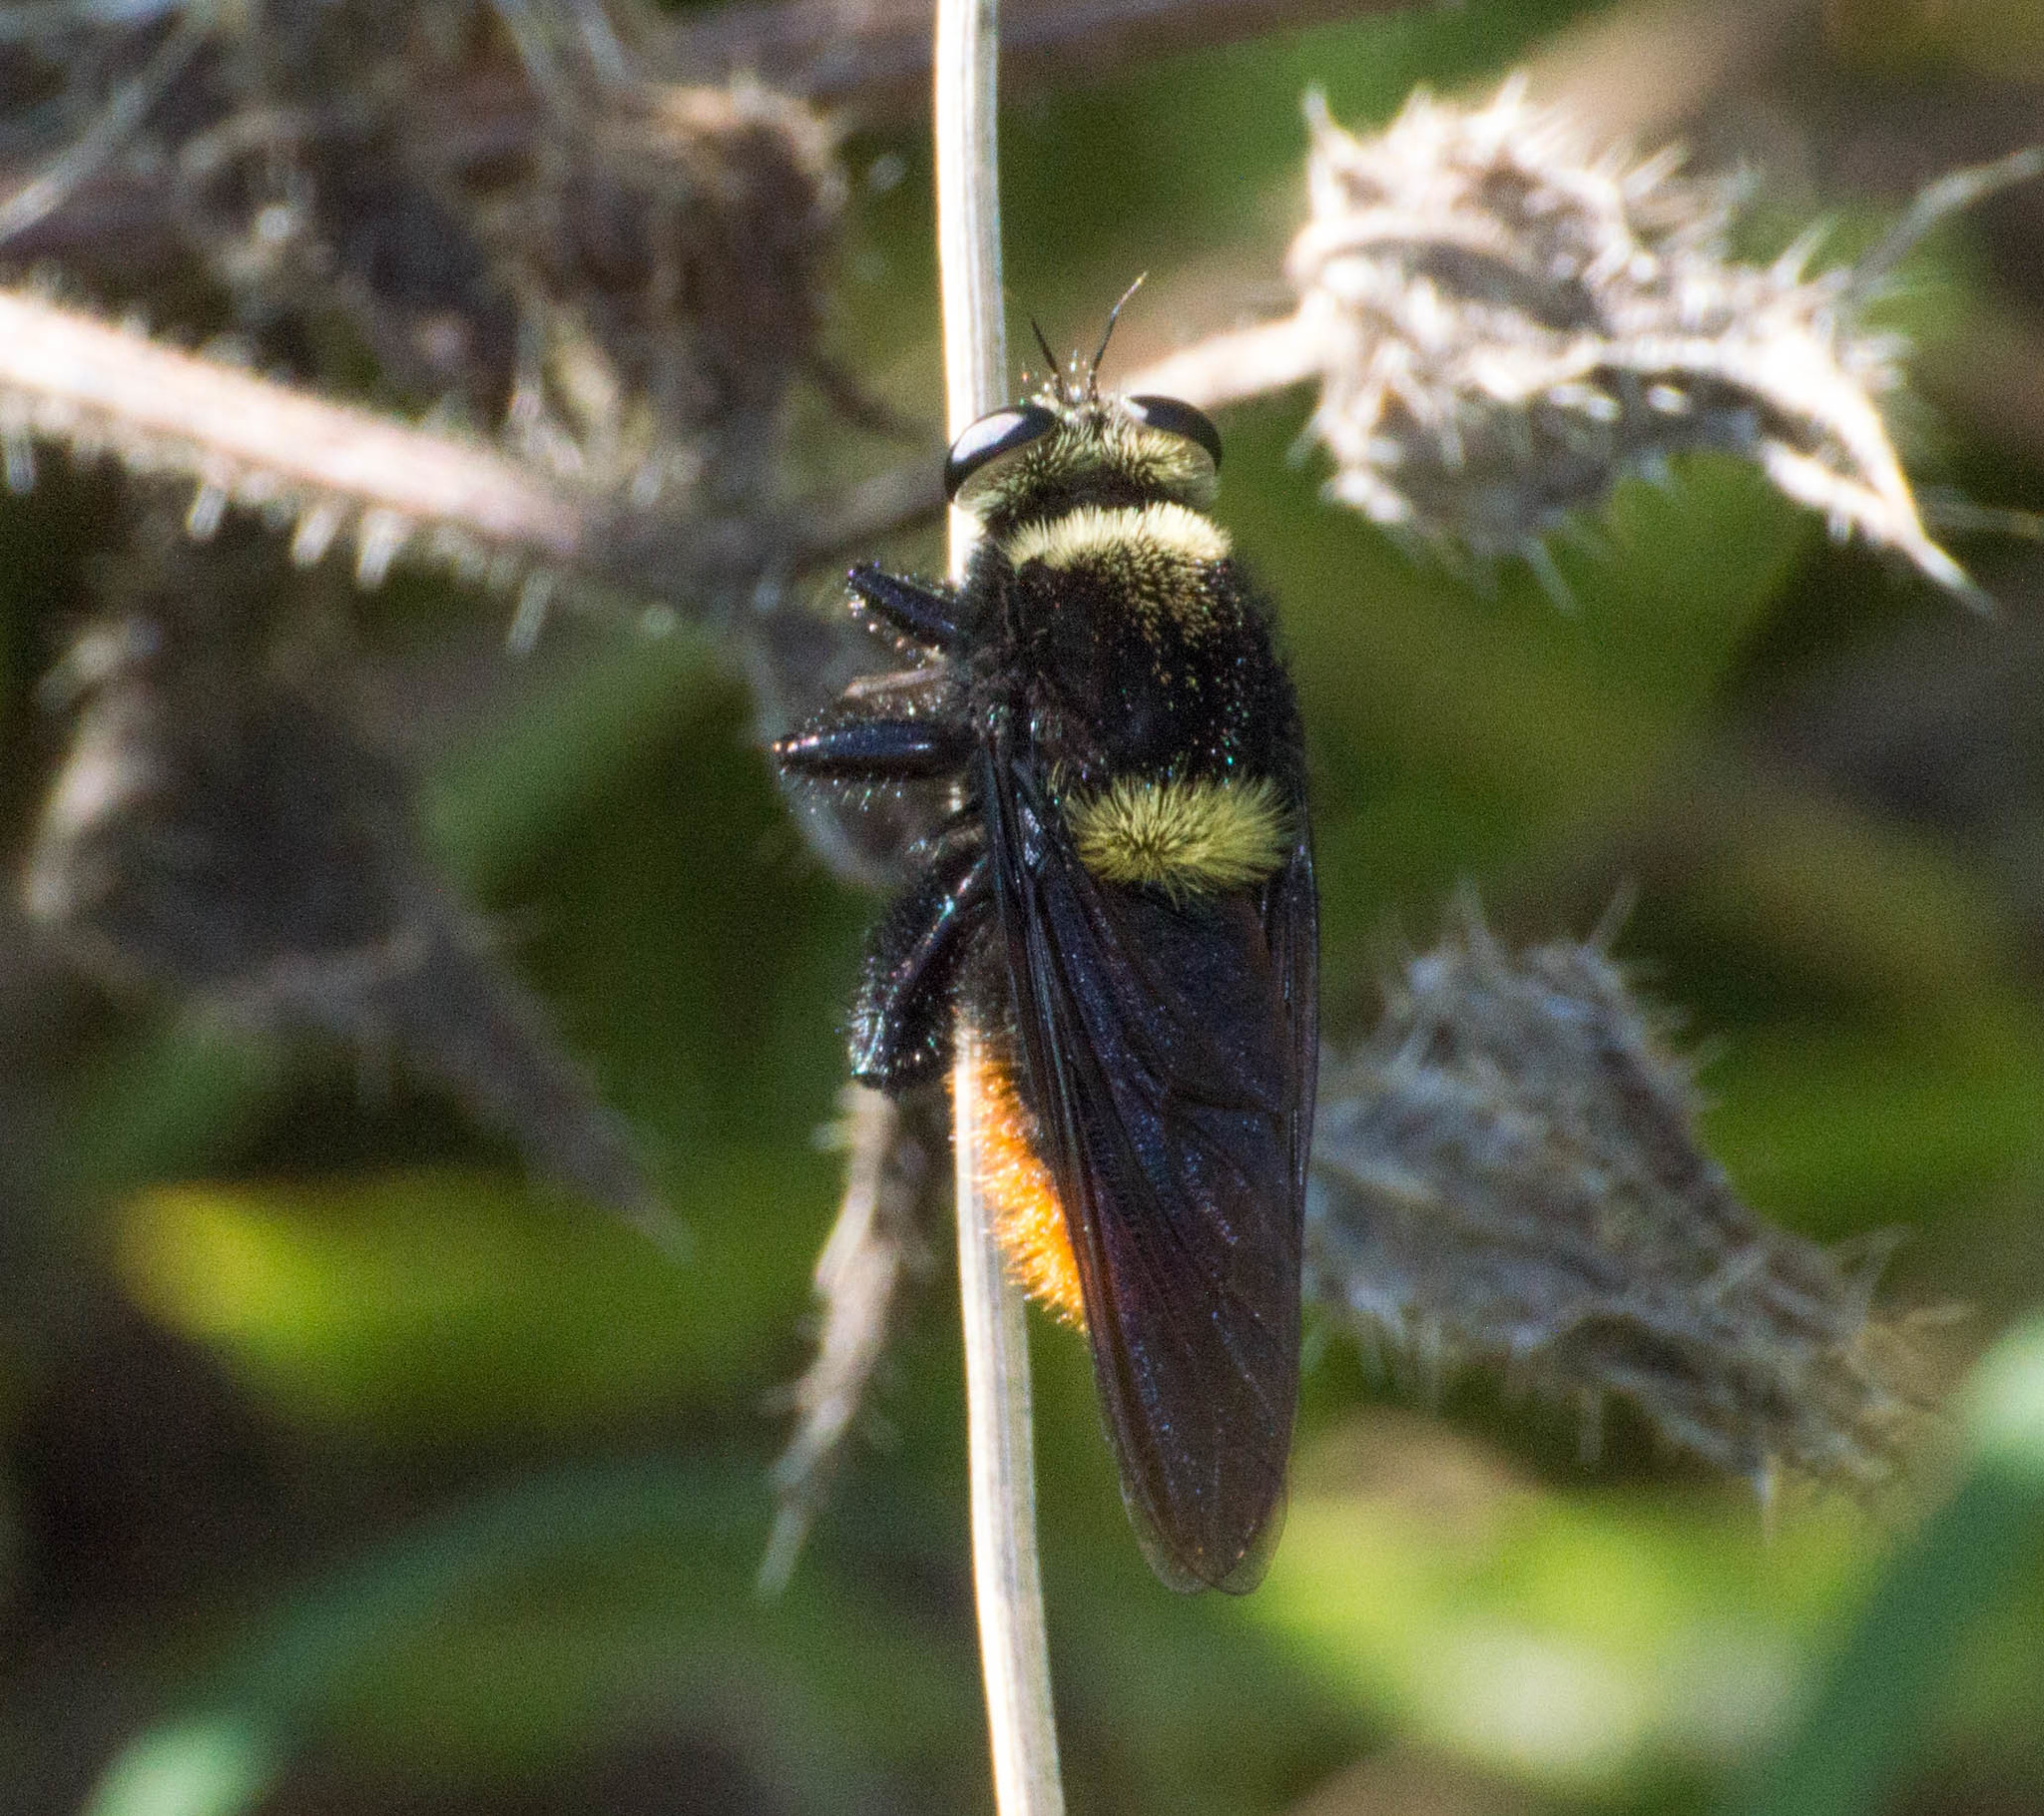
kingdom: Animalia
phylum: Arthropoda
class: Insecta
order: Diptera
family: Asilidae
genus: Mallophora
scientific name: Mallophora ruficauda
